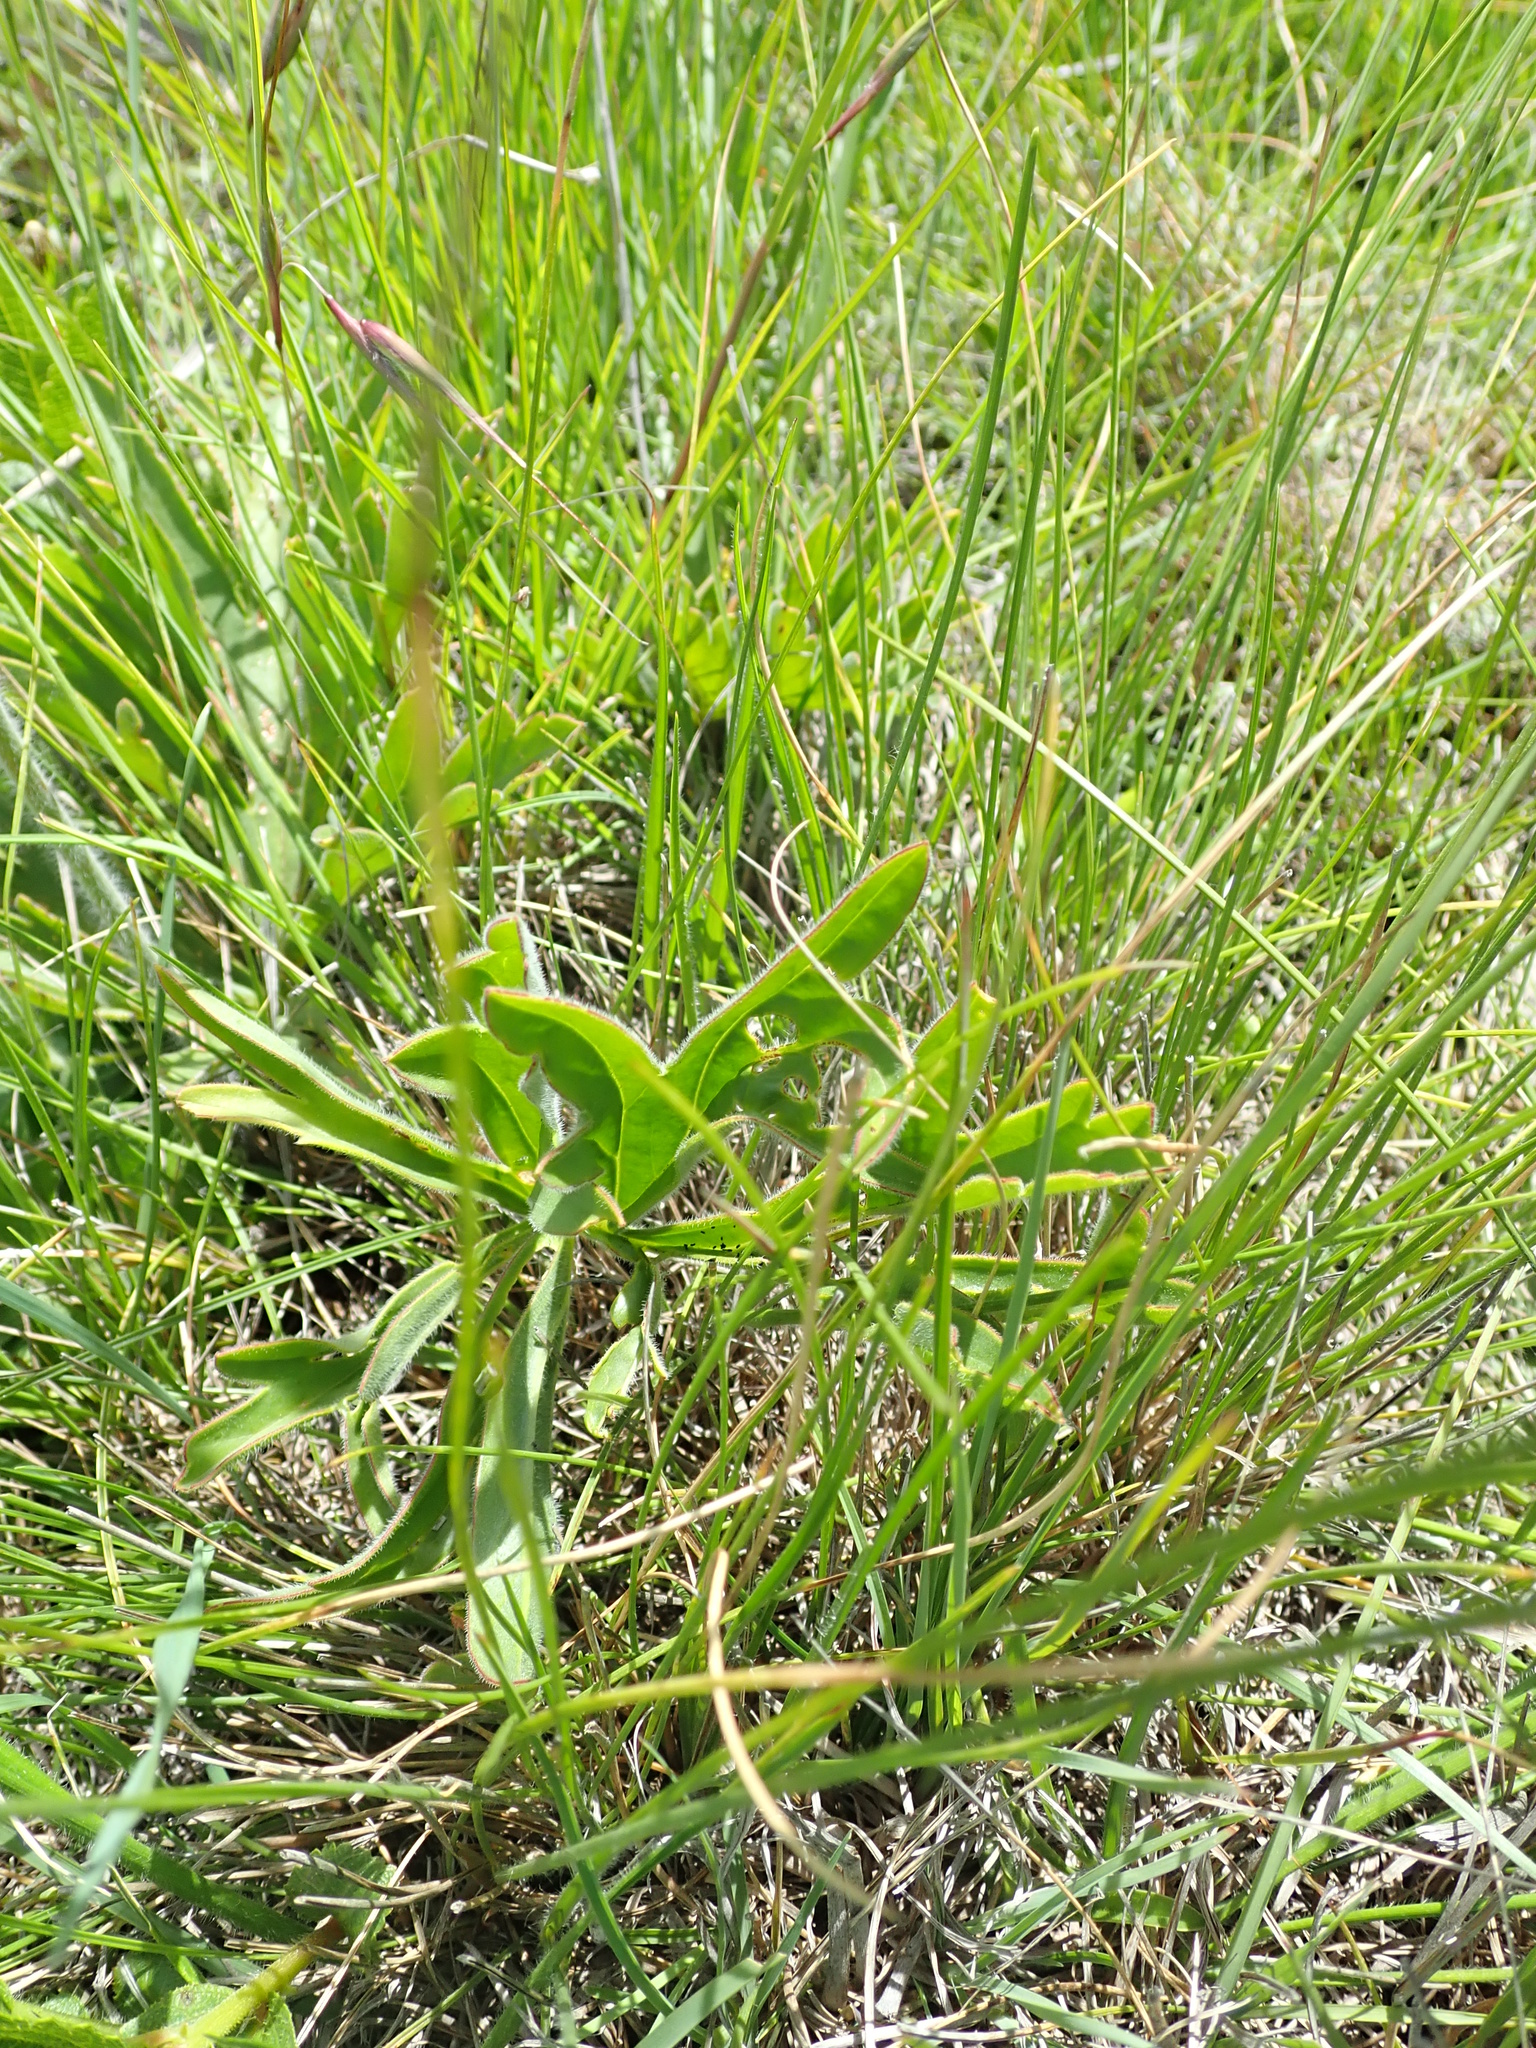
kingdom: Plantae
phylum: Tracheophyta
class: Magnoliopsida
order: Geraniales
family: Geraniaceae
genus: Pelargonium
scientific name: Pelargonium luridum
